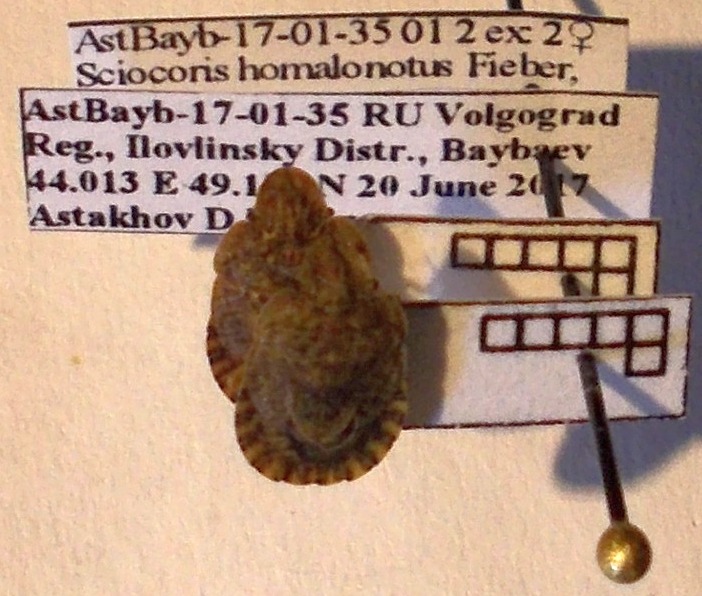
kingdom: Animalia
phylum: Arthropoda
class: Insecta
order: Hemiptera
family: Pentatomidae
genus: Sciocoris
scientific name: Sciocoris homalonotus
